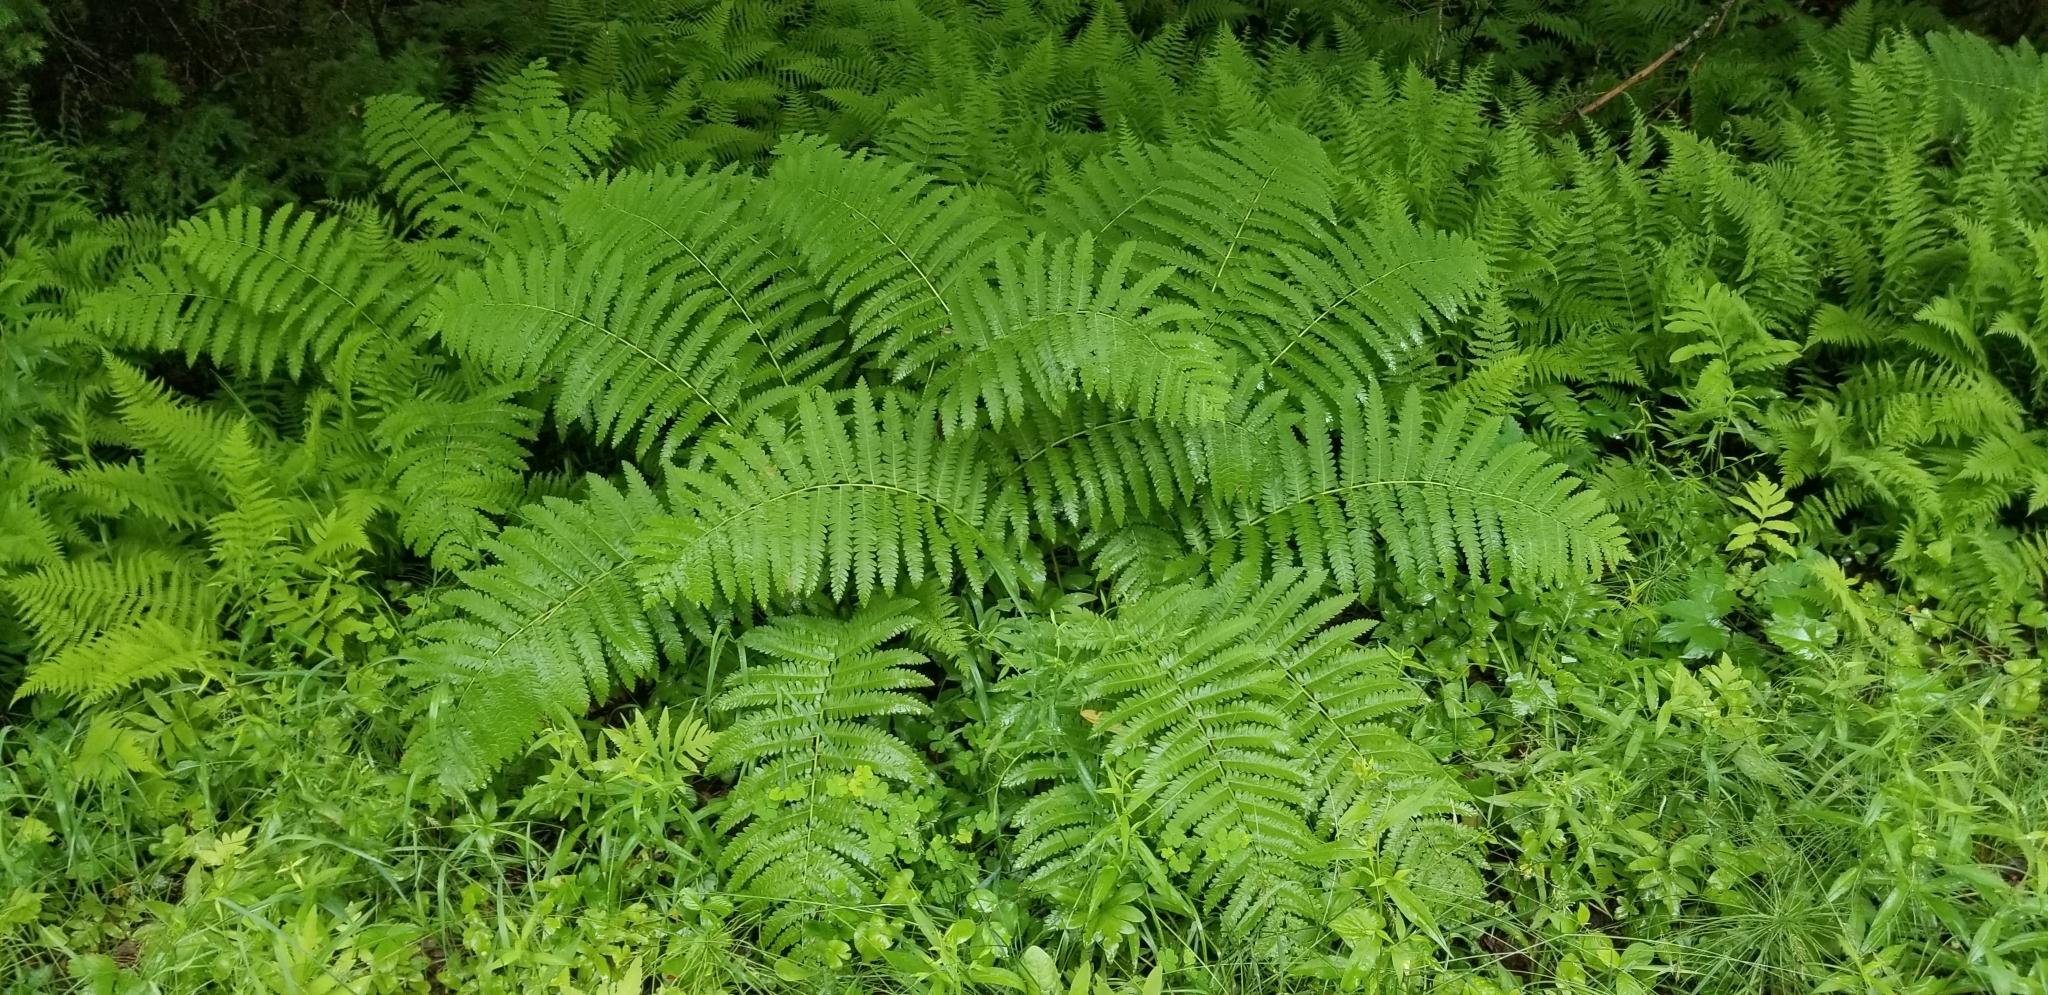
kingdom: Plantae
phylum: Tracheophyta
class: Polypodiopsida
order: Osmundales
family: Osmundaceae
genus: Claytosmunda
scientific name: Claytosmunda claytoniana
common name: Clayton's fern
